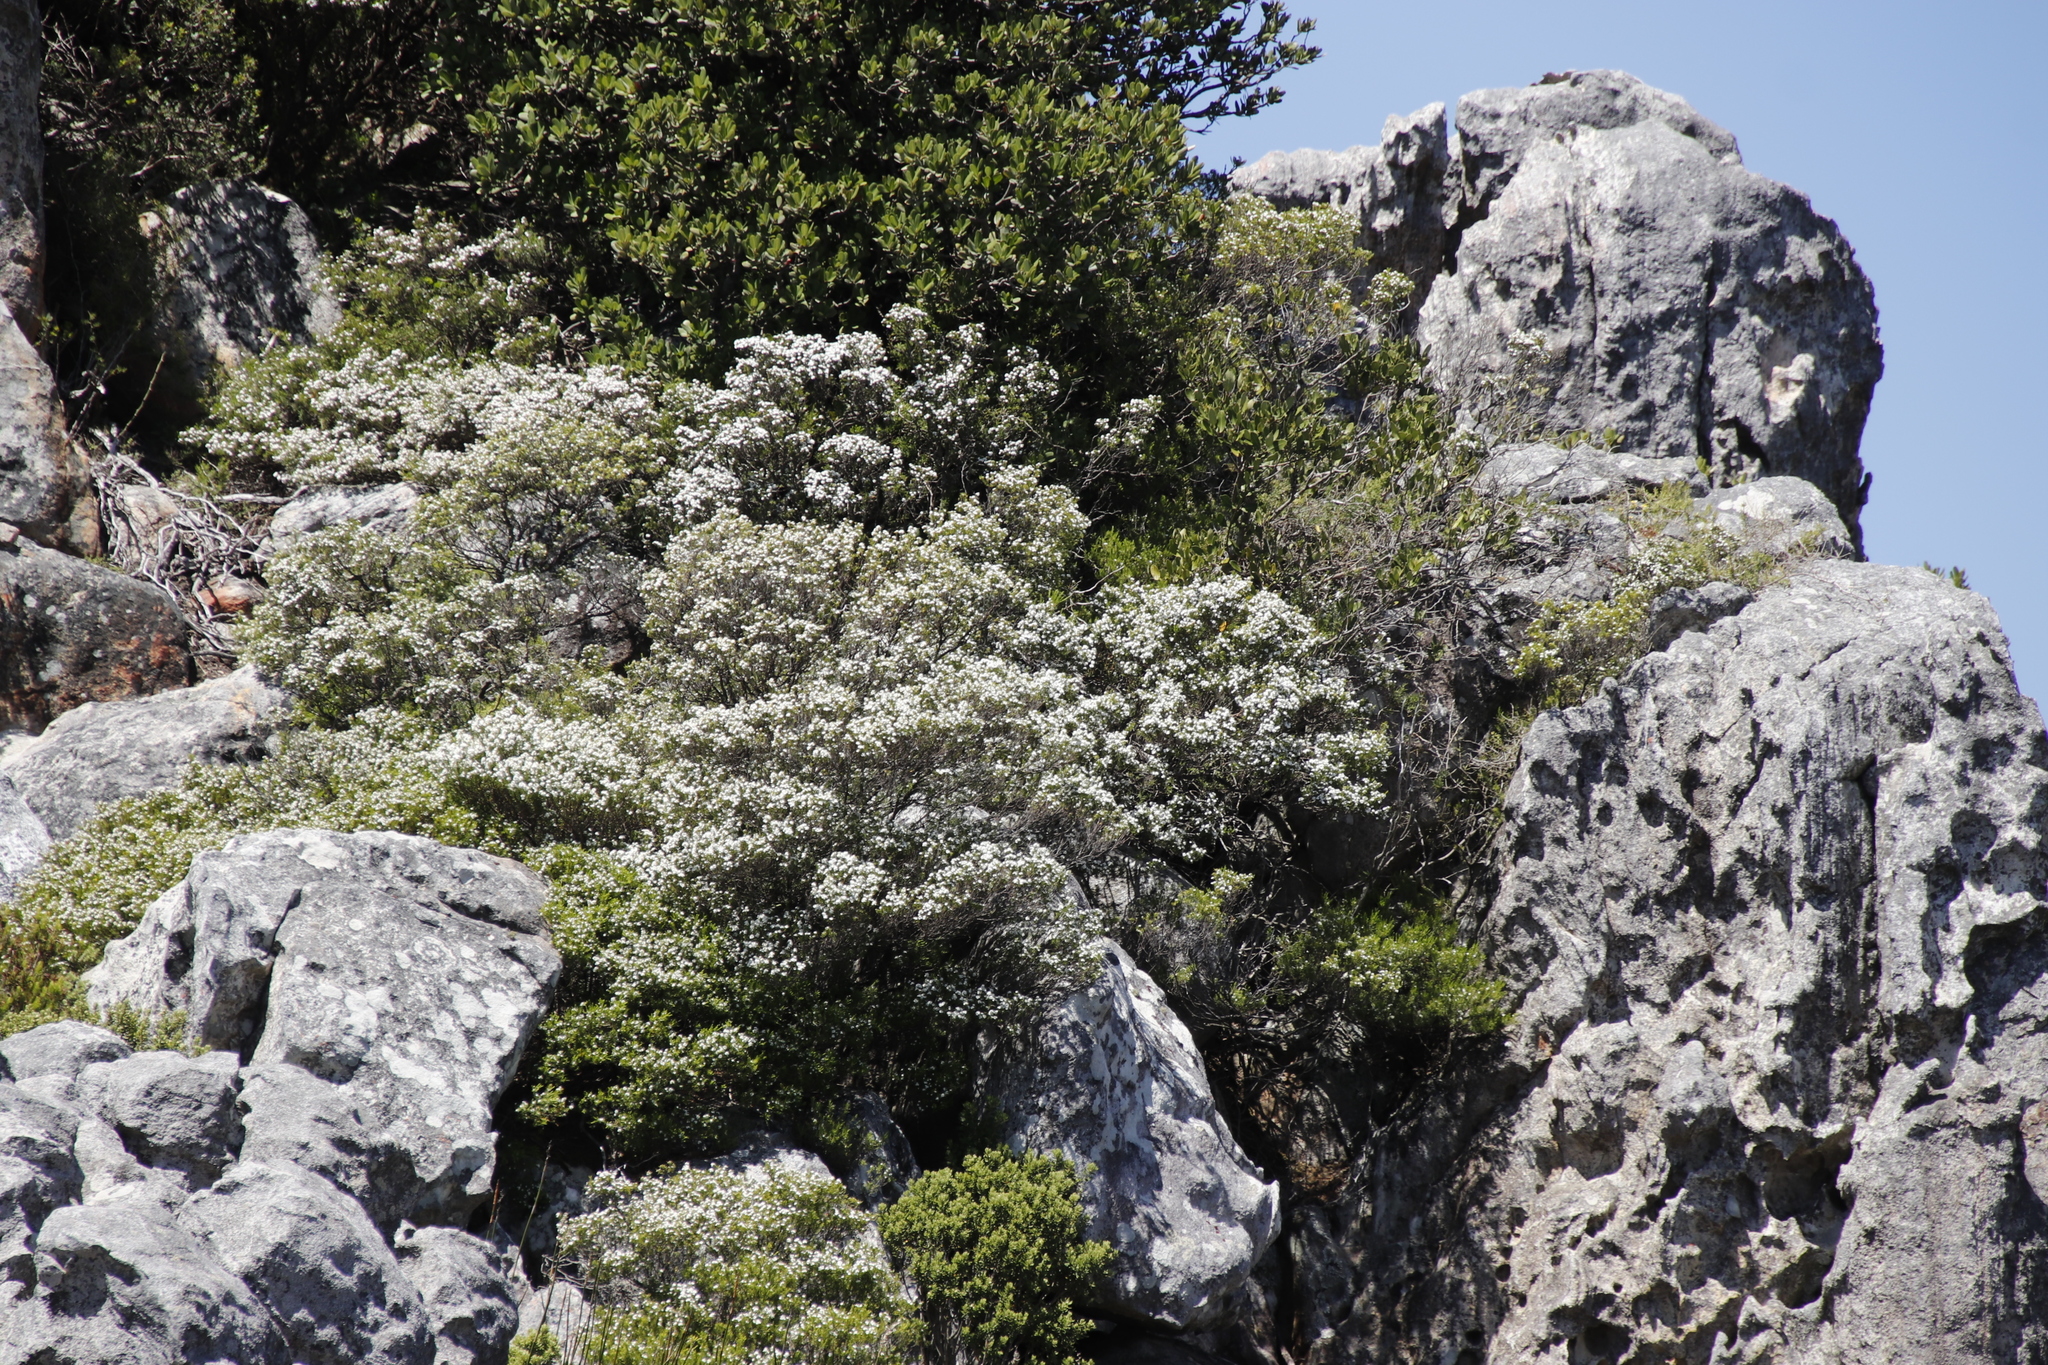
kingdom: Plantae
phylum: Tracheophyta
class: Magnoliopsida
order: Sapindales
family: Rutaceae
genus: Coleonema
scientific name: Coleonema album
